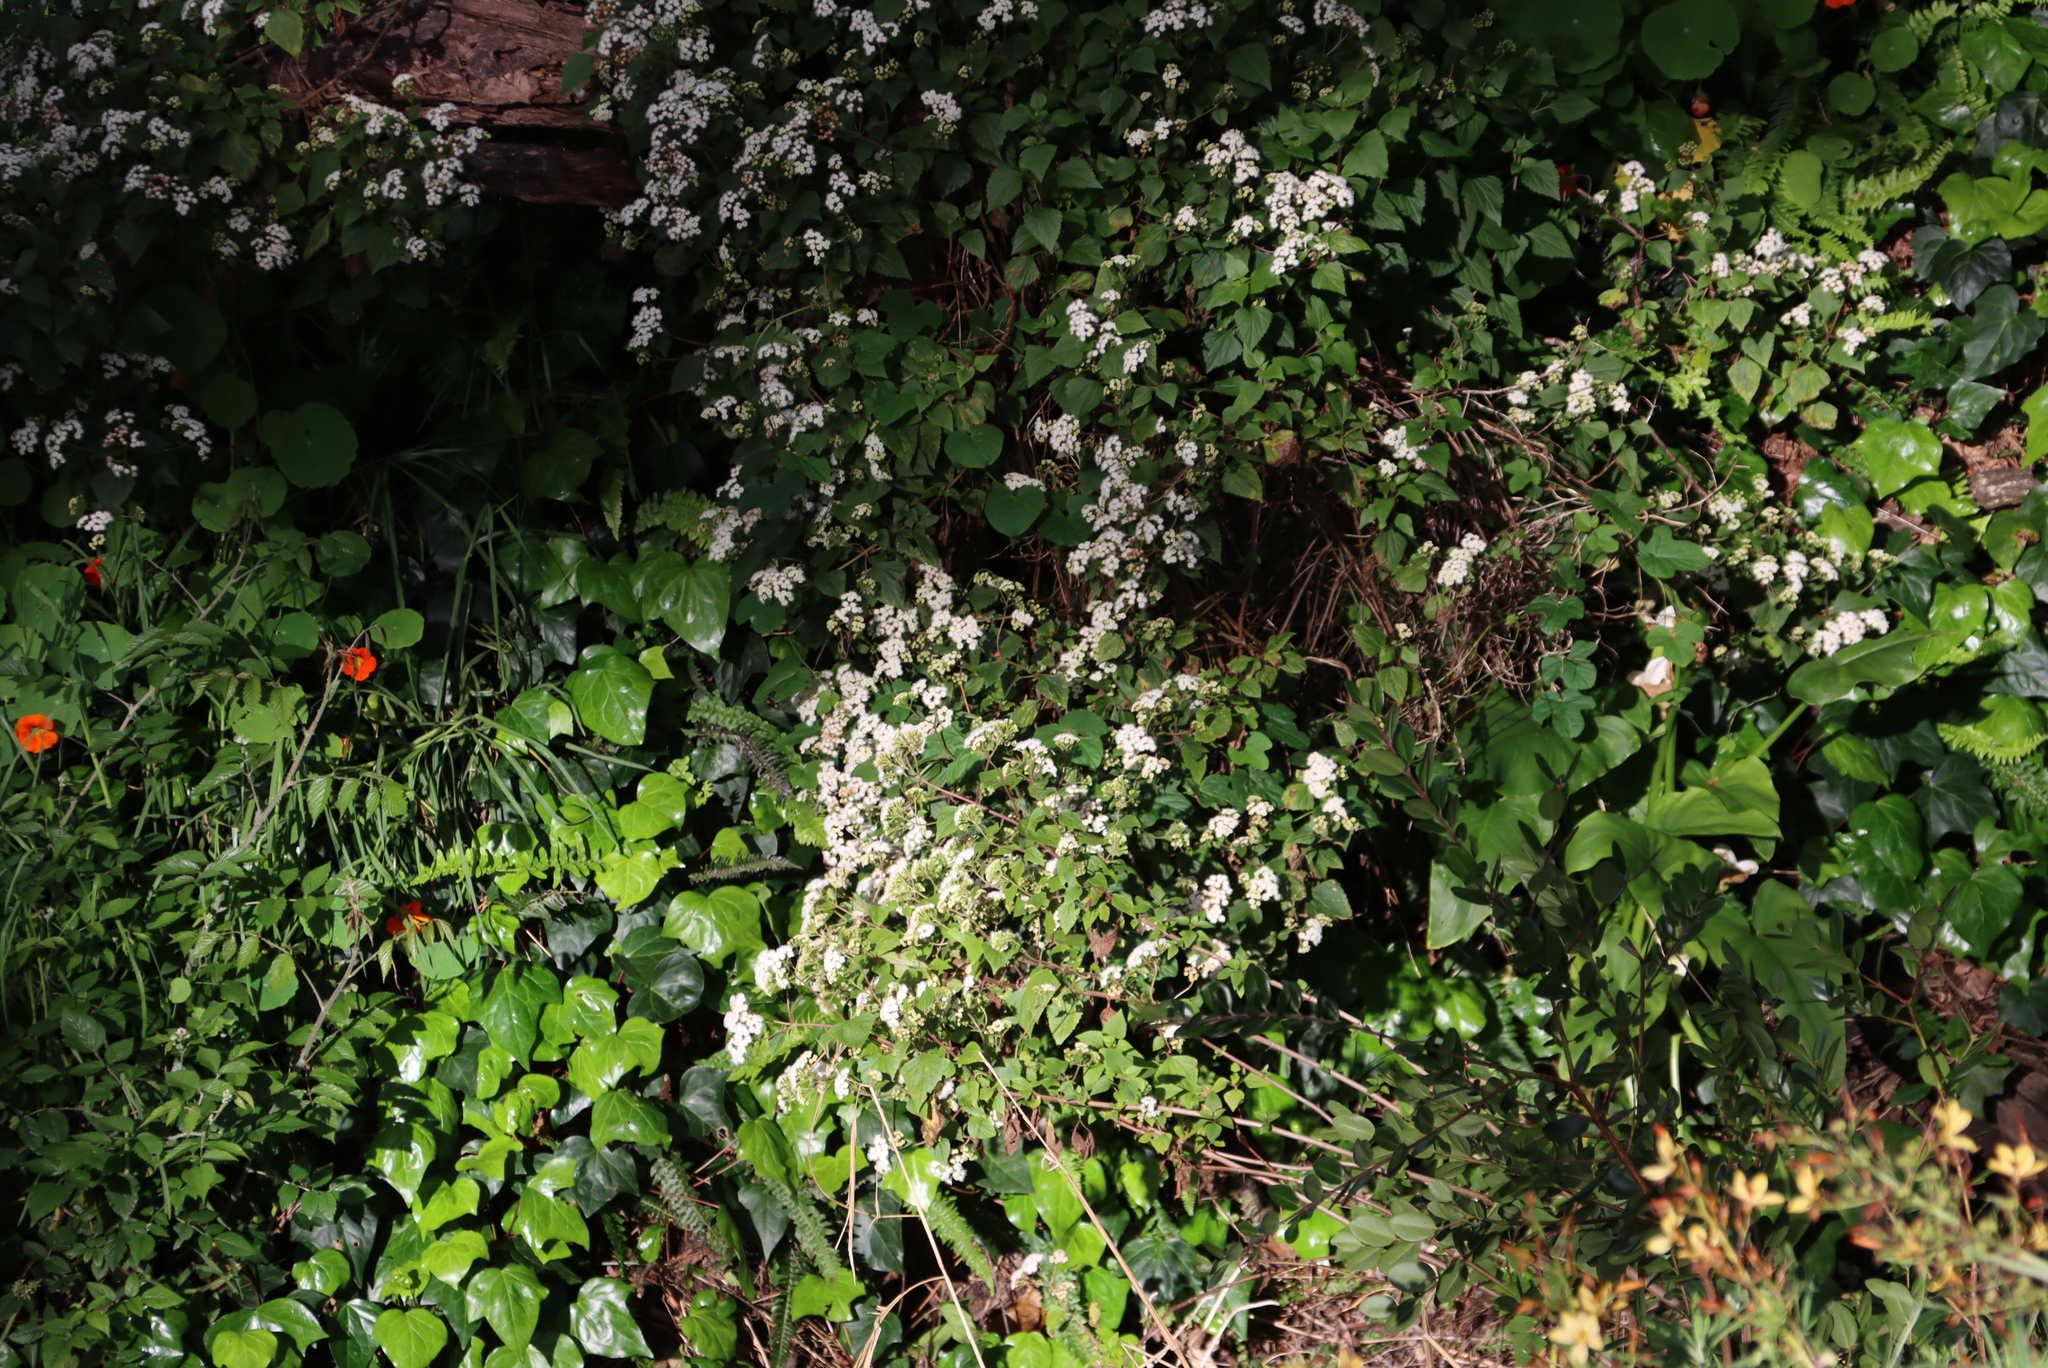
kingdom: Plantae
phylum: Tracheophyta
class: Magnoliopsida
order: Asterales
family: Asteraceae
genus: Ageratina
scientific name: Ageratina adenophora
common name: Sticky snakeroot
